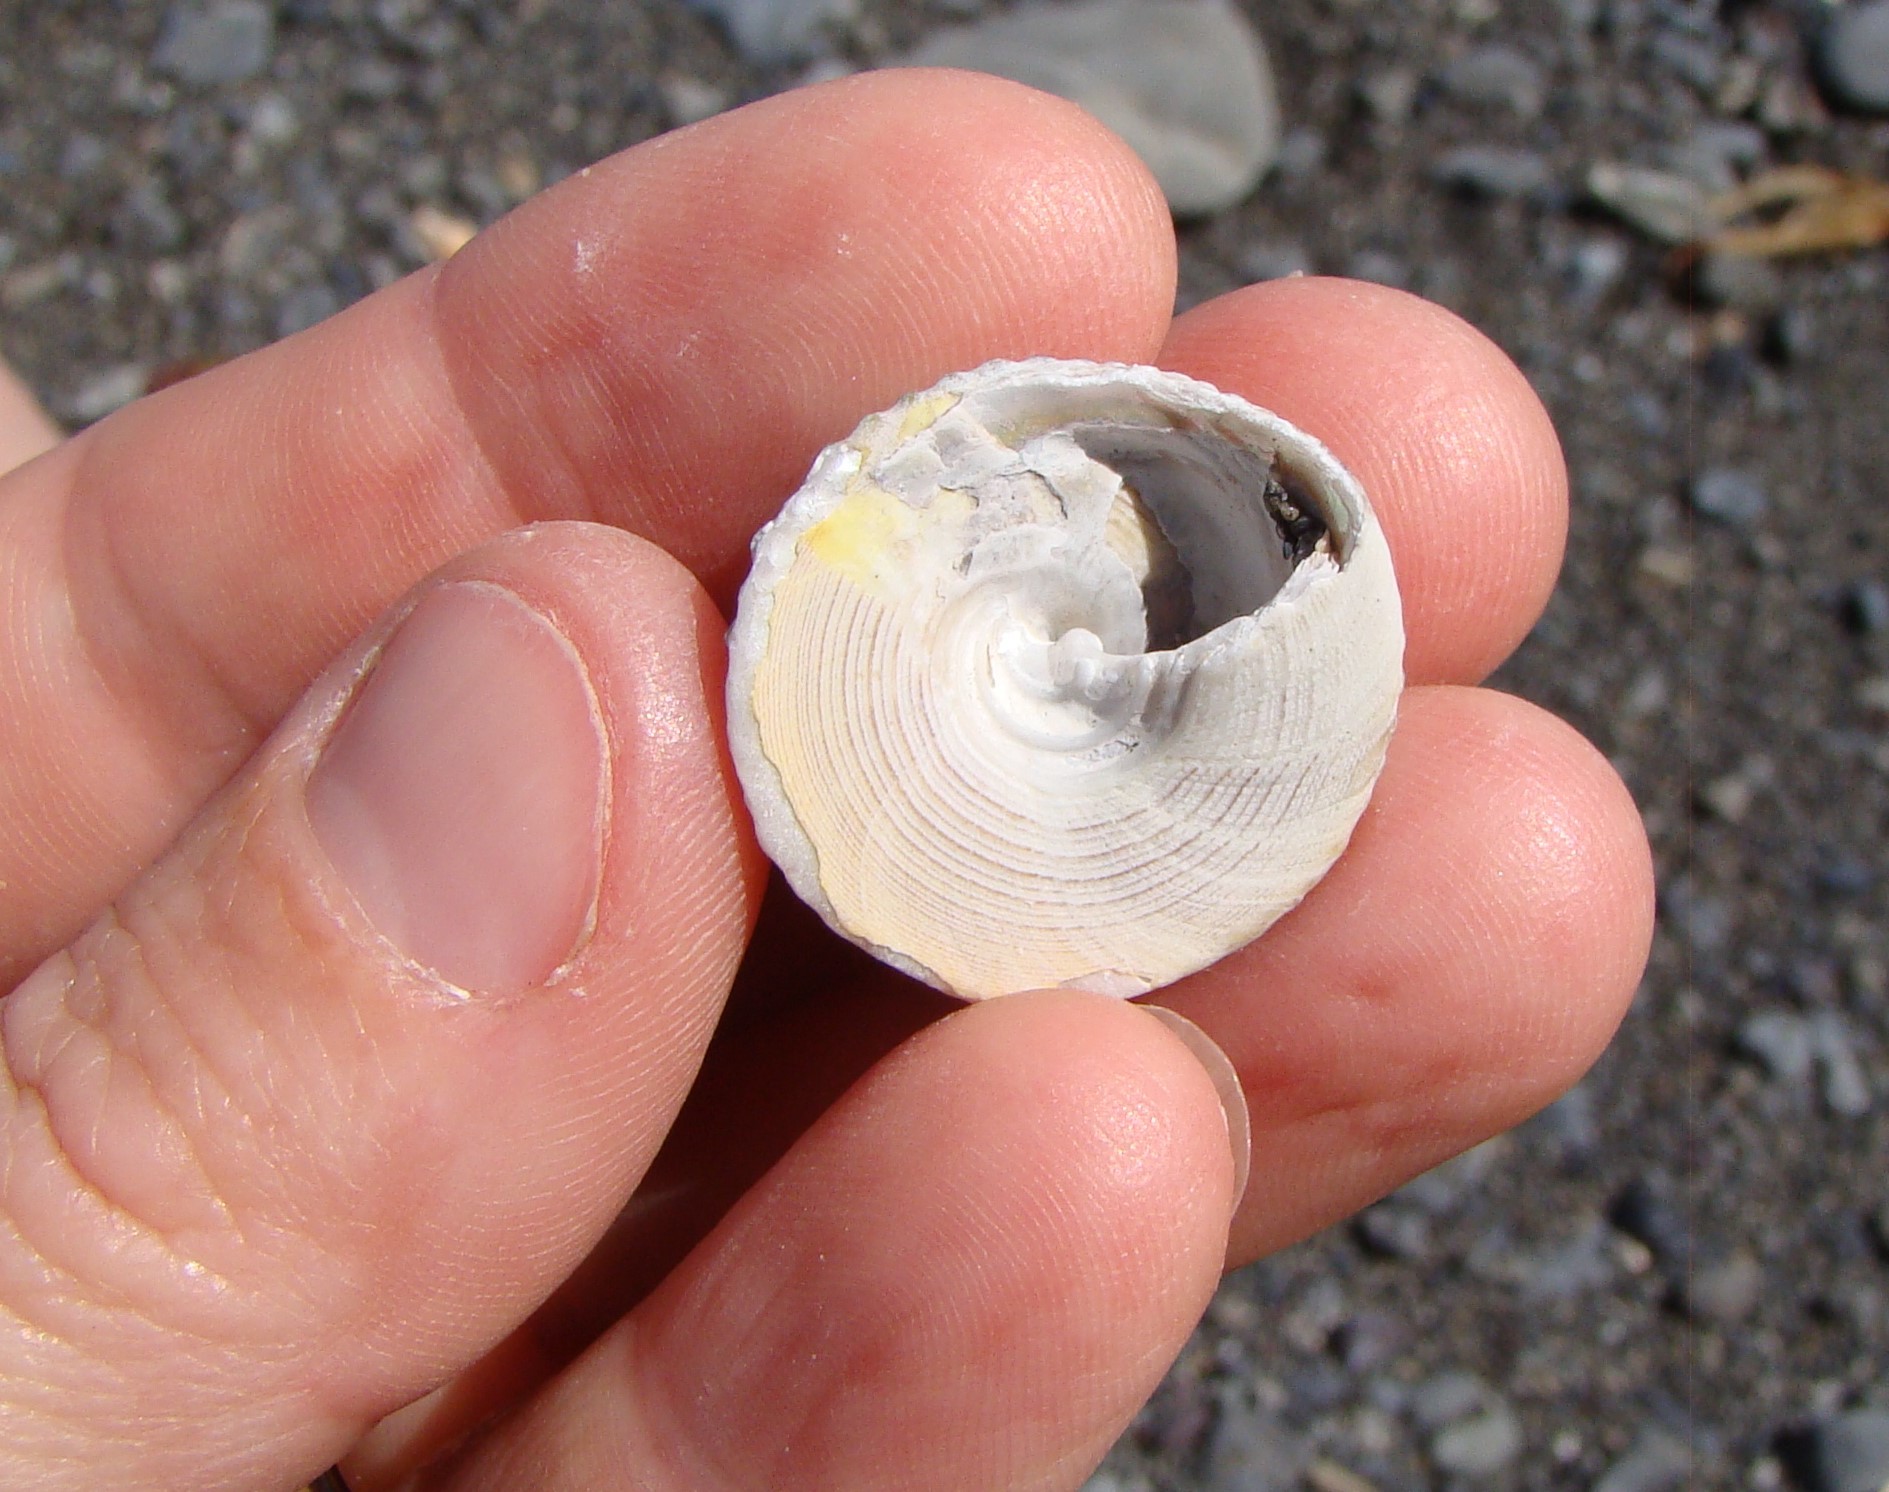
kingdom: Animalia
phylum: Mollusca
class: Gastropoda
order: Trochida
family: Trochidae
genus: Coelotrochus
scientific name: Coelotrochus viridis
